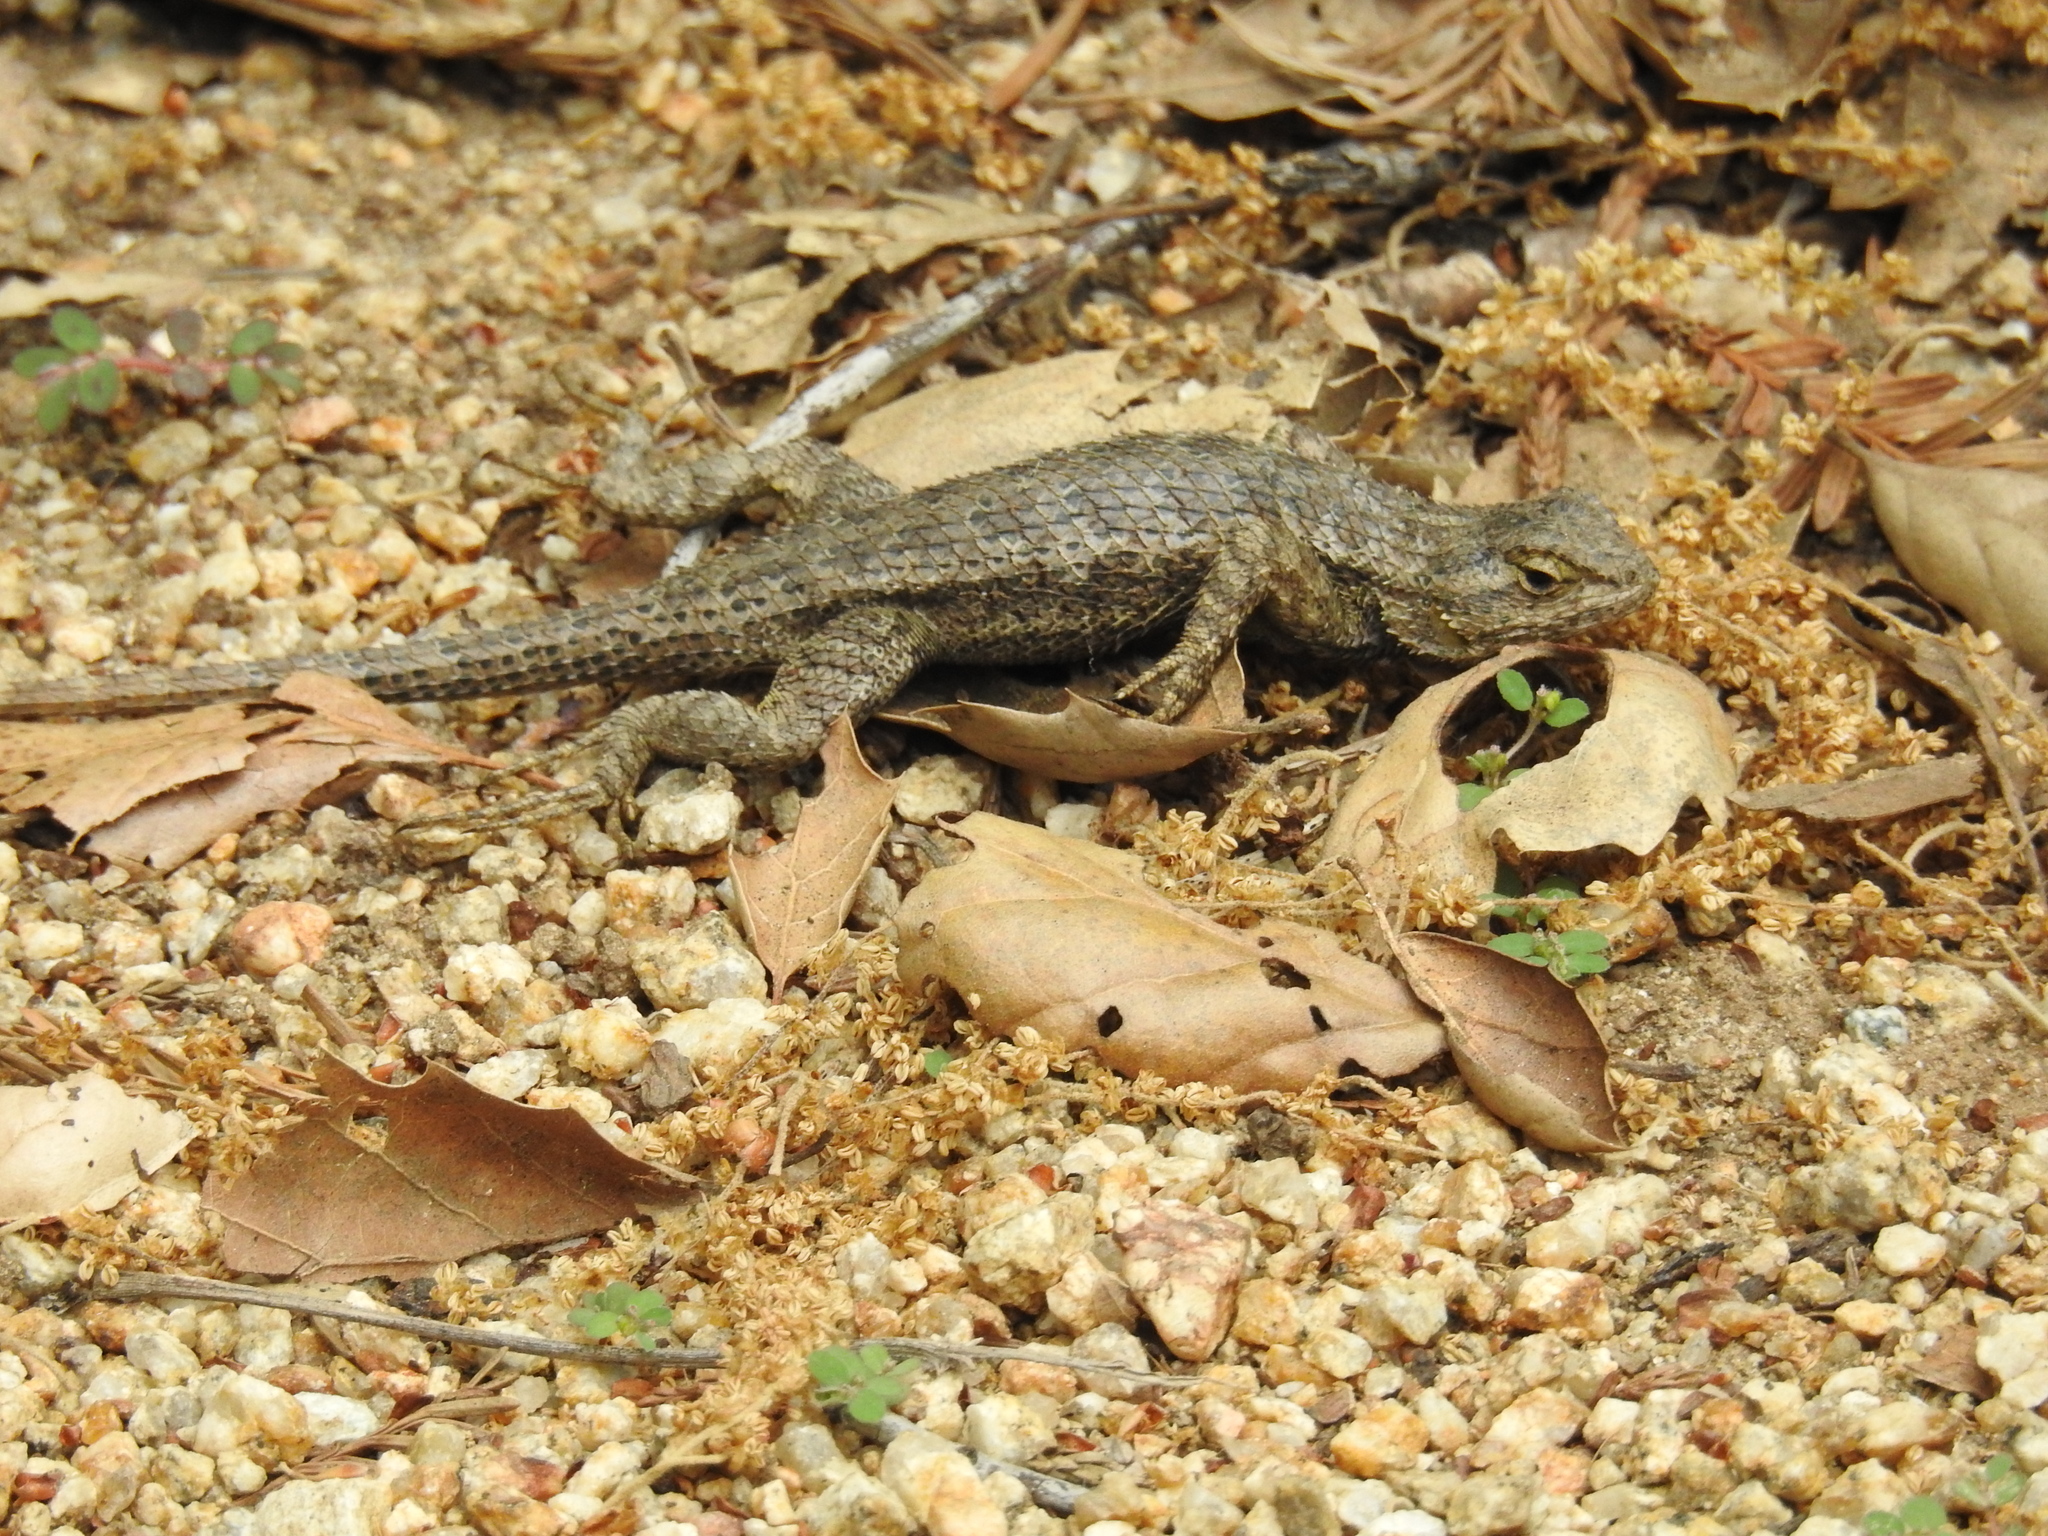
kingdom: Animalia
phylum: Chordata
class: Squamata
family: Phrynosomatidae
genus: Sceloporus
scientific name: Sceloporus occidentalis
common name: Western fence lizard
